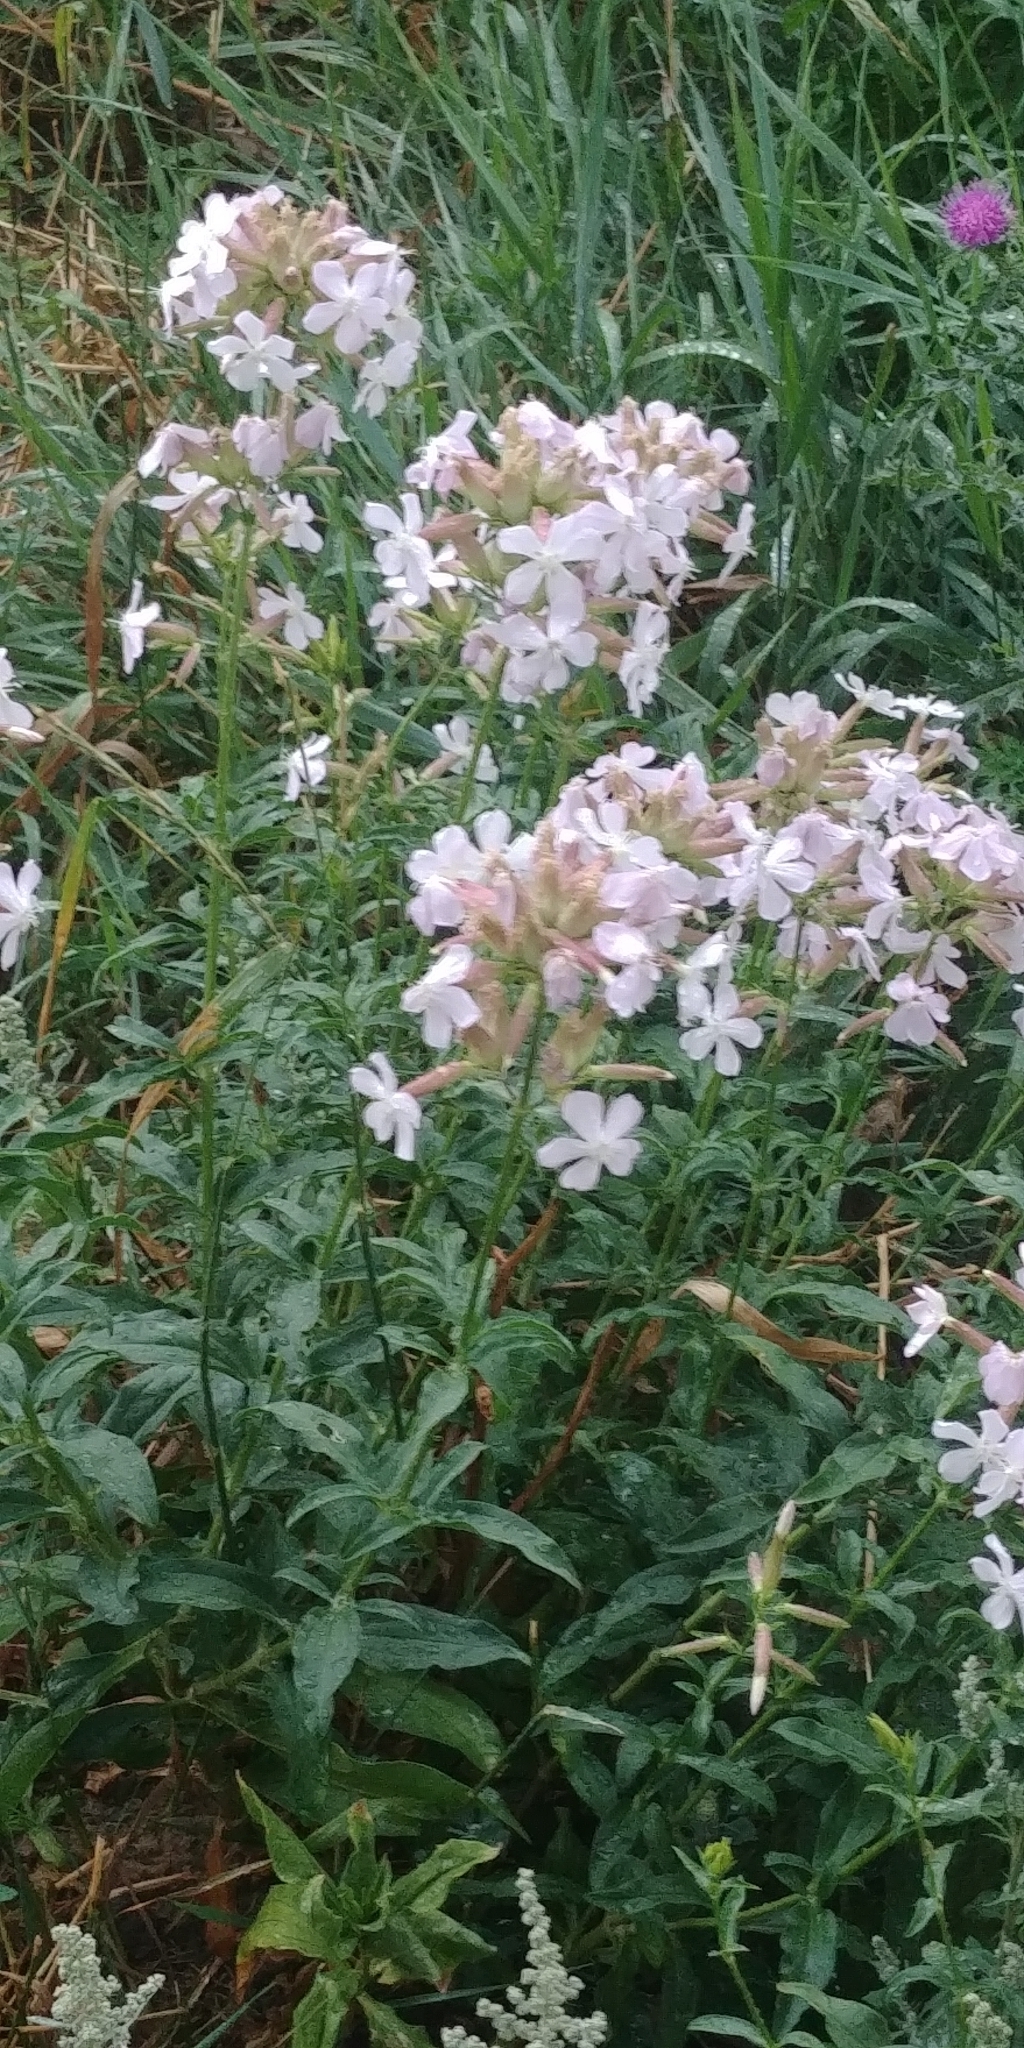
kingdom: Plantae
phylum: Tracheophyta
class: Magnoliopsida
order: Caryophyllales
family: Caryophyllaceae
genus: Saponaria
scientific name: Saponaria officinalis
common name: Soapwort
